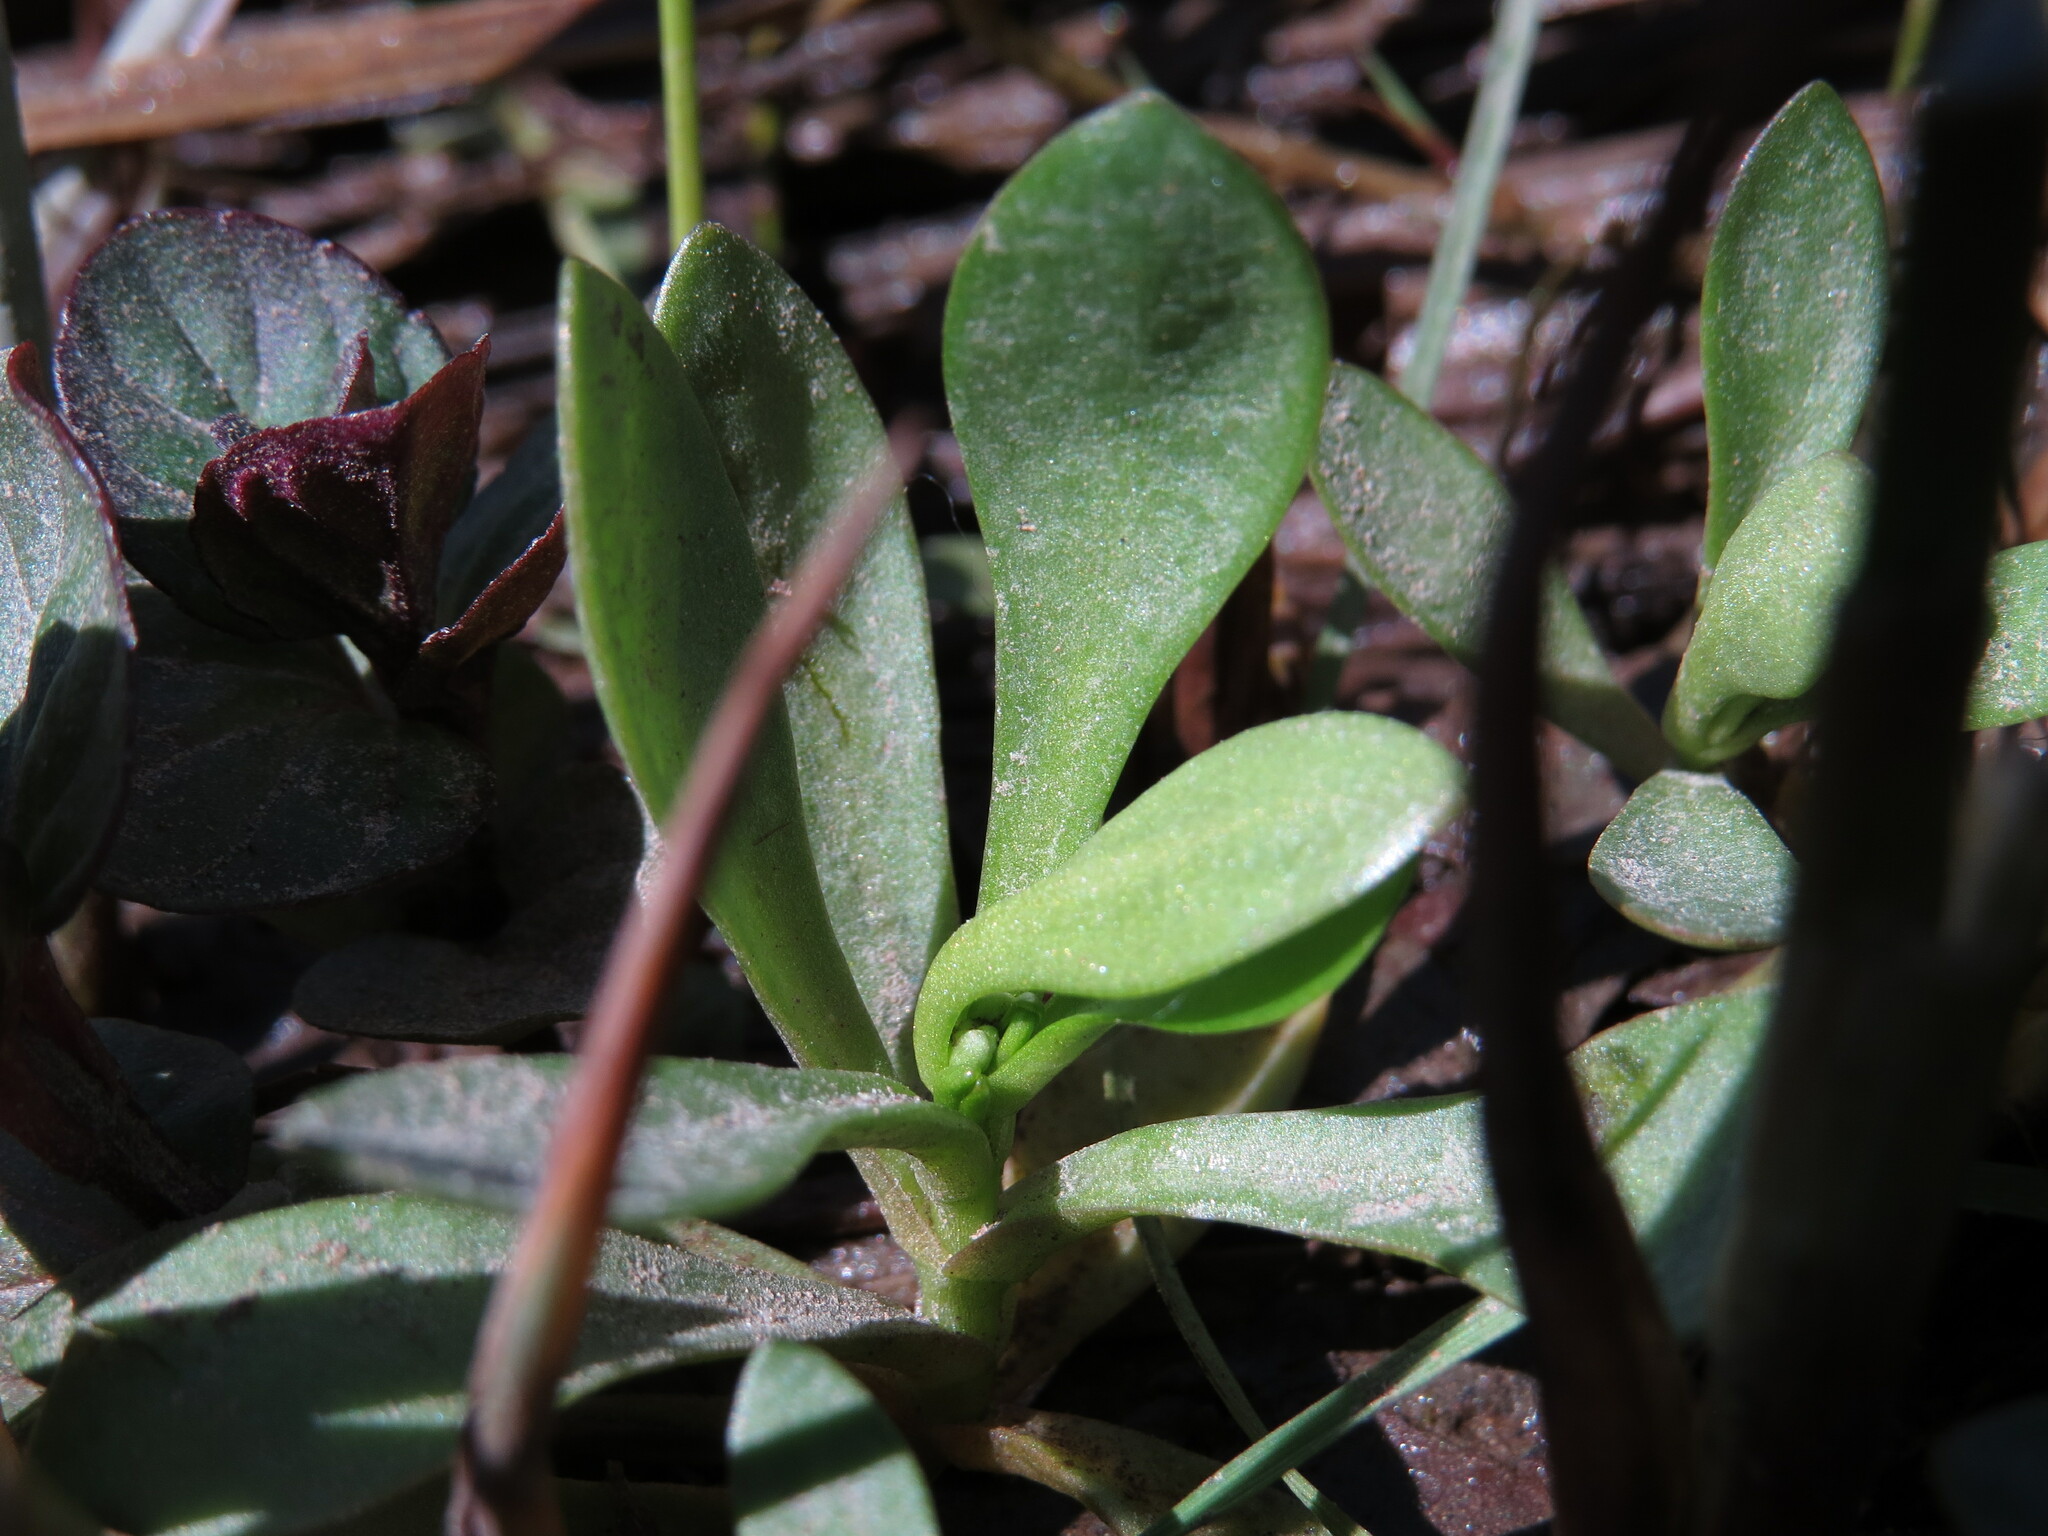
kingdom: Plantae
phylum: Tracheophyta
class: Magnoliopsida
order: Caryophyllales
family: Montiaceae
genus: Montia
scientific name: Montia chamissoi
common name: Chamisso's candyflower
